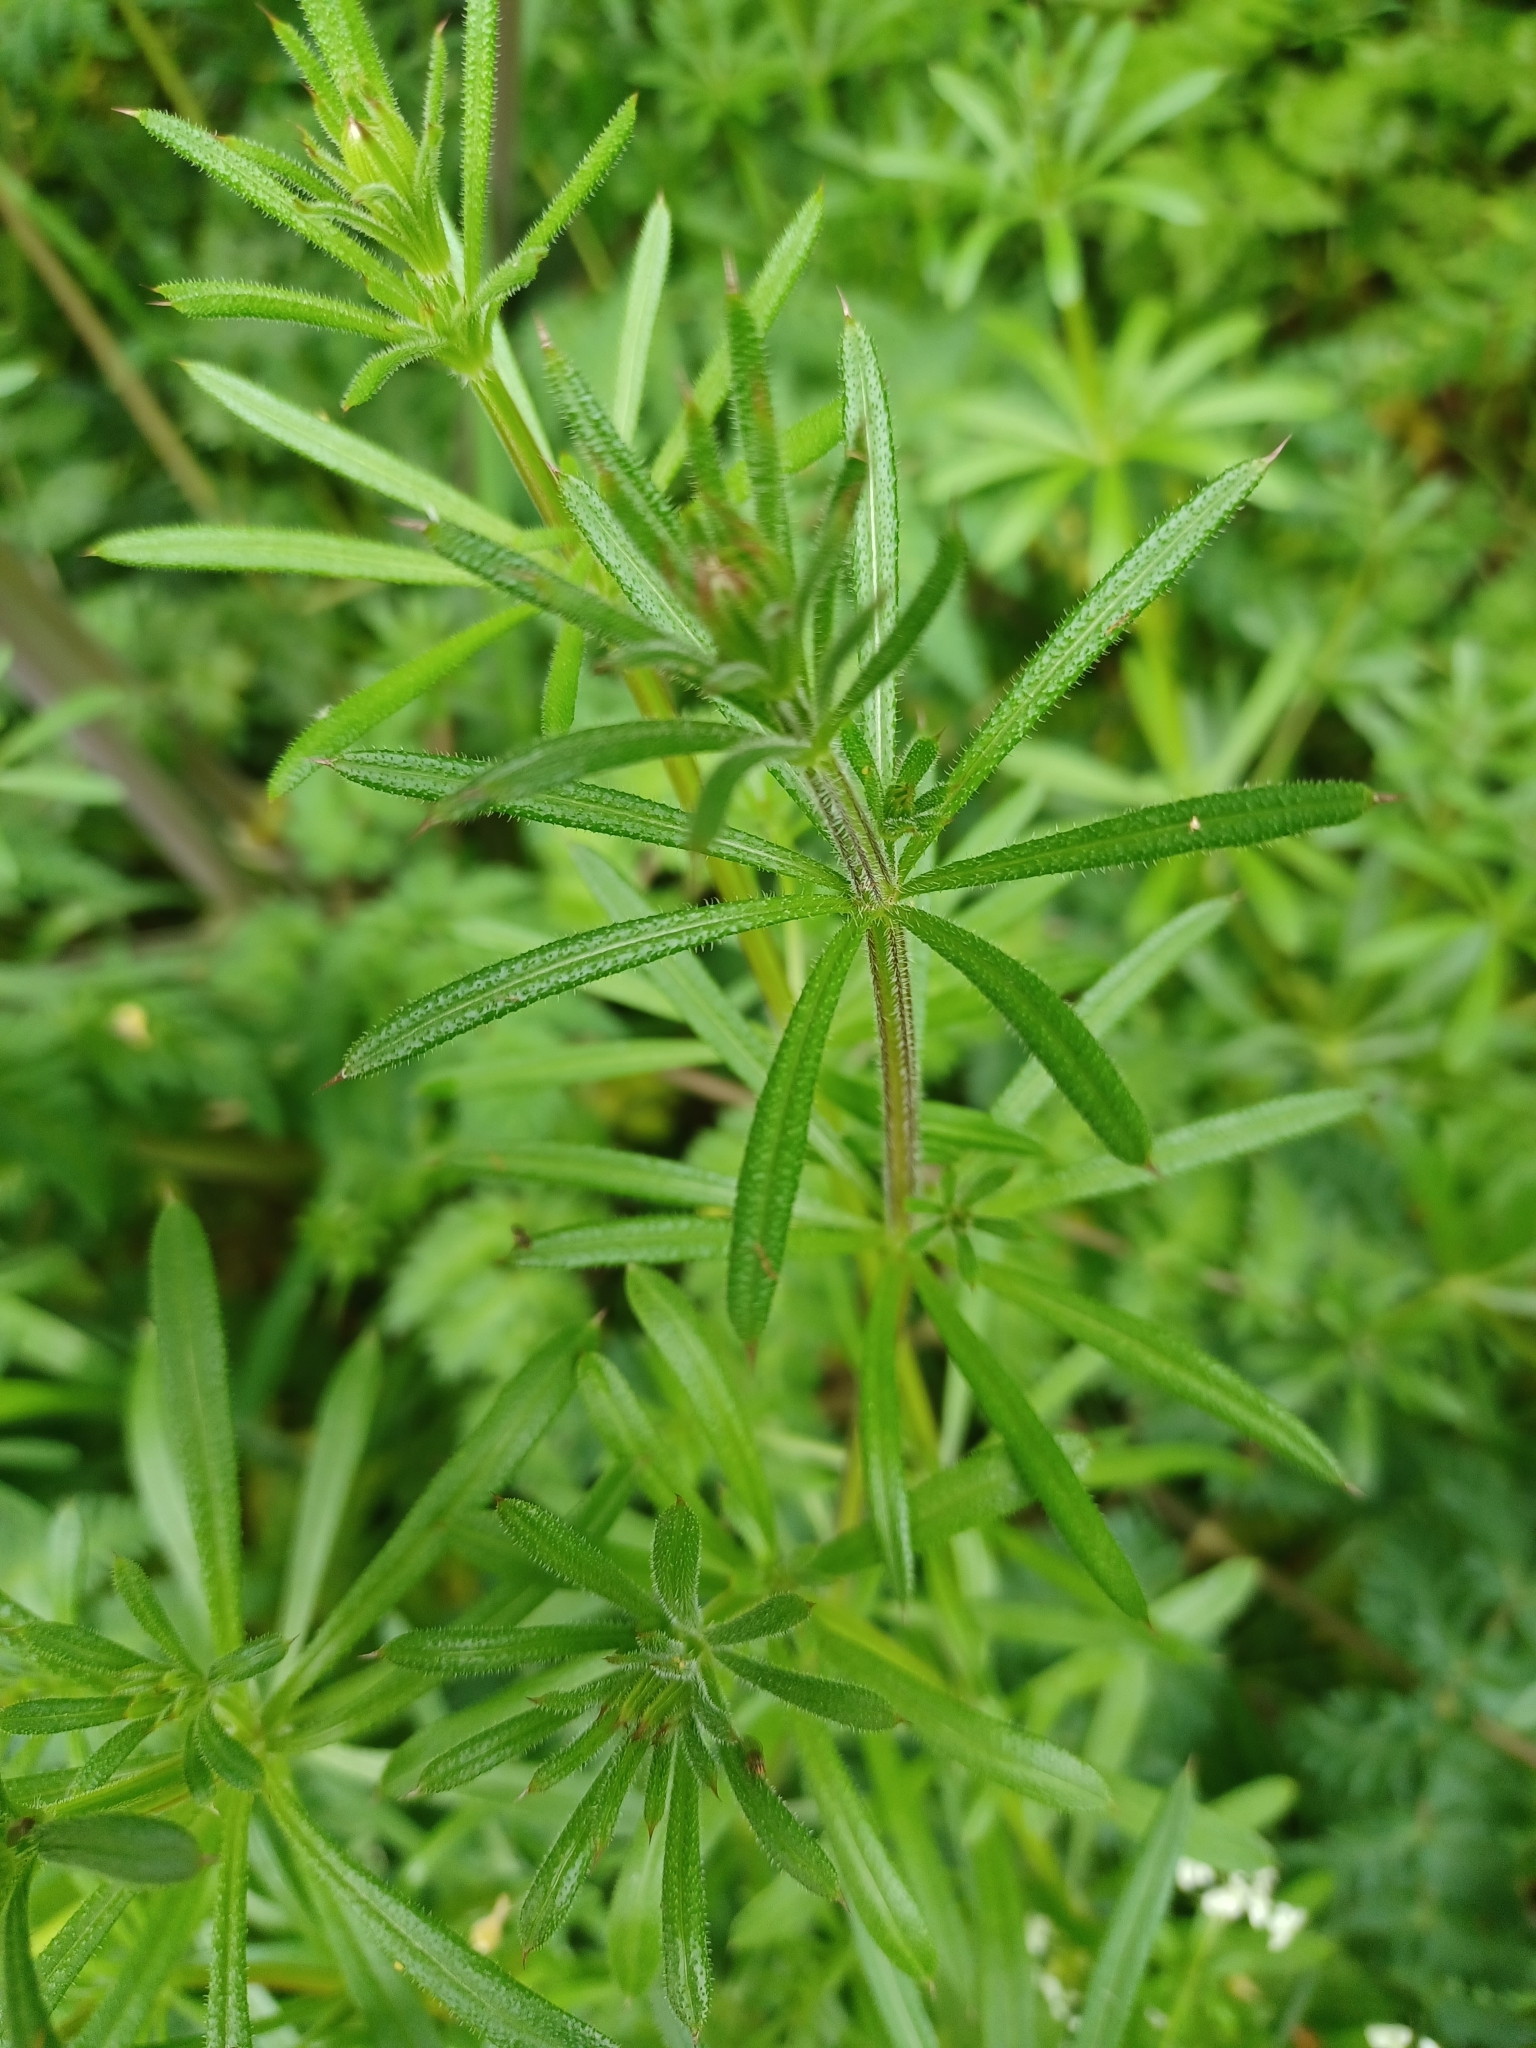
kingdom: Plantae
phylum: Tracheophyta
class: Magnoliopsida
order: Gentianales
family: Rubiaceae
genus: Galium
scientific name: Galium aparine
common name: Cleavers
